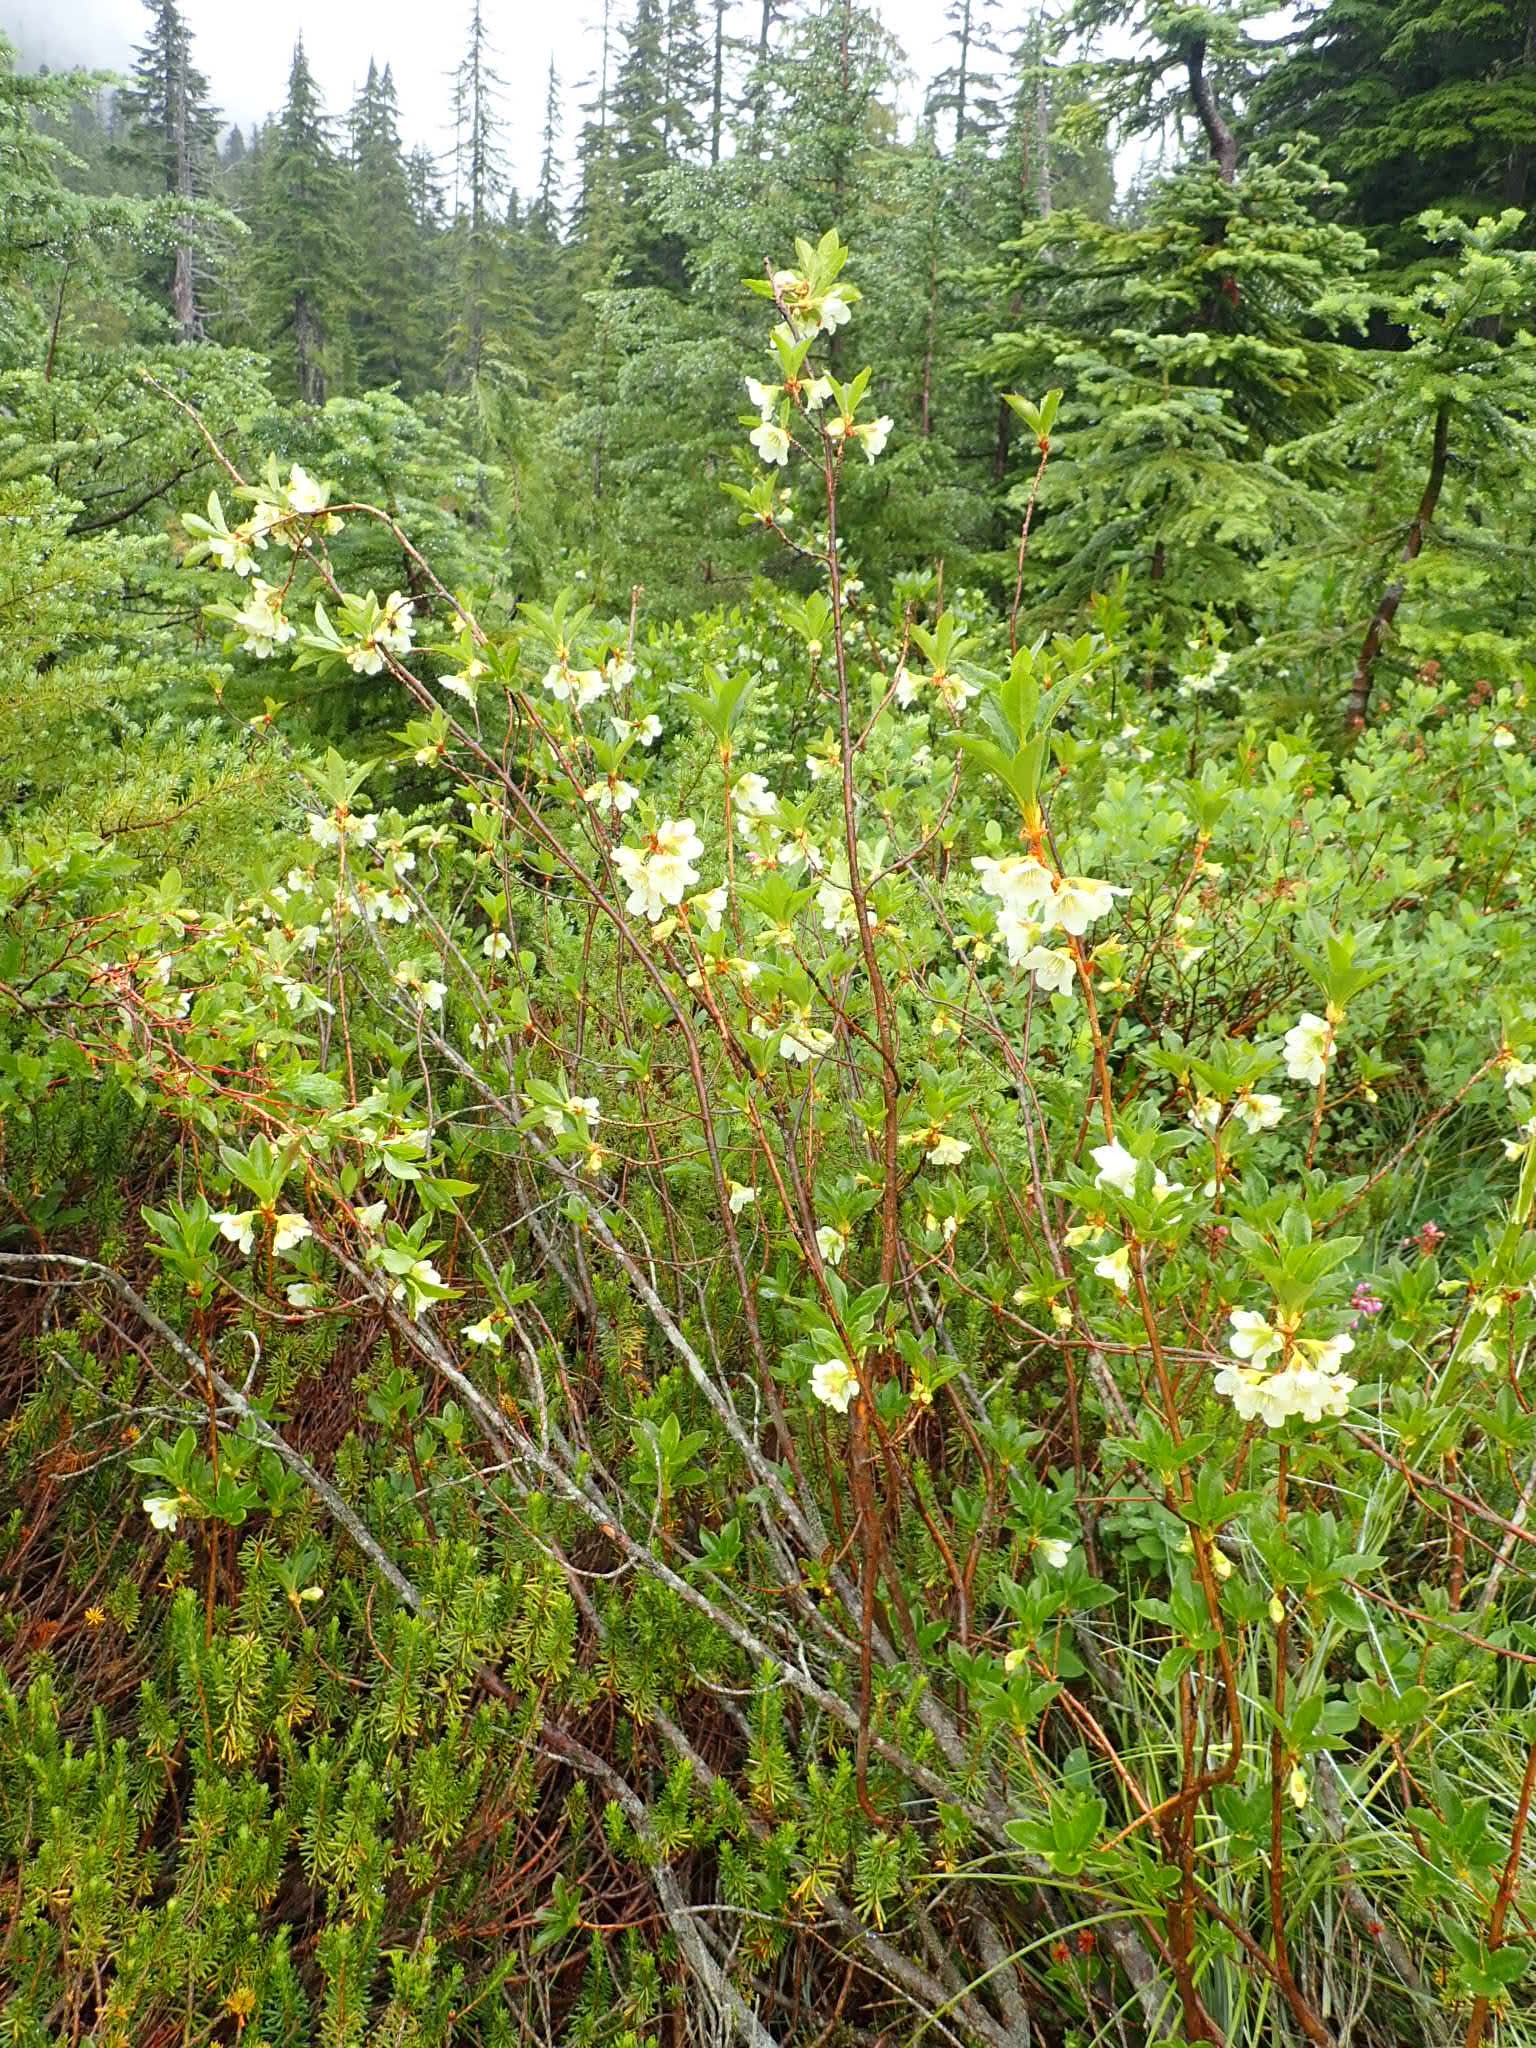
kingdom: Plantae
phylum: Tracheophyta
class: Magnoliopsida
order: Ericales
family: Ericaceae
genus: Rhododendron
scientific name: Rhododendron albiflorum
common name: White rhododendron
